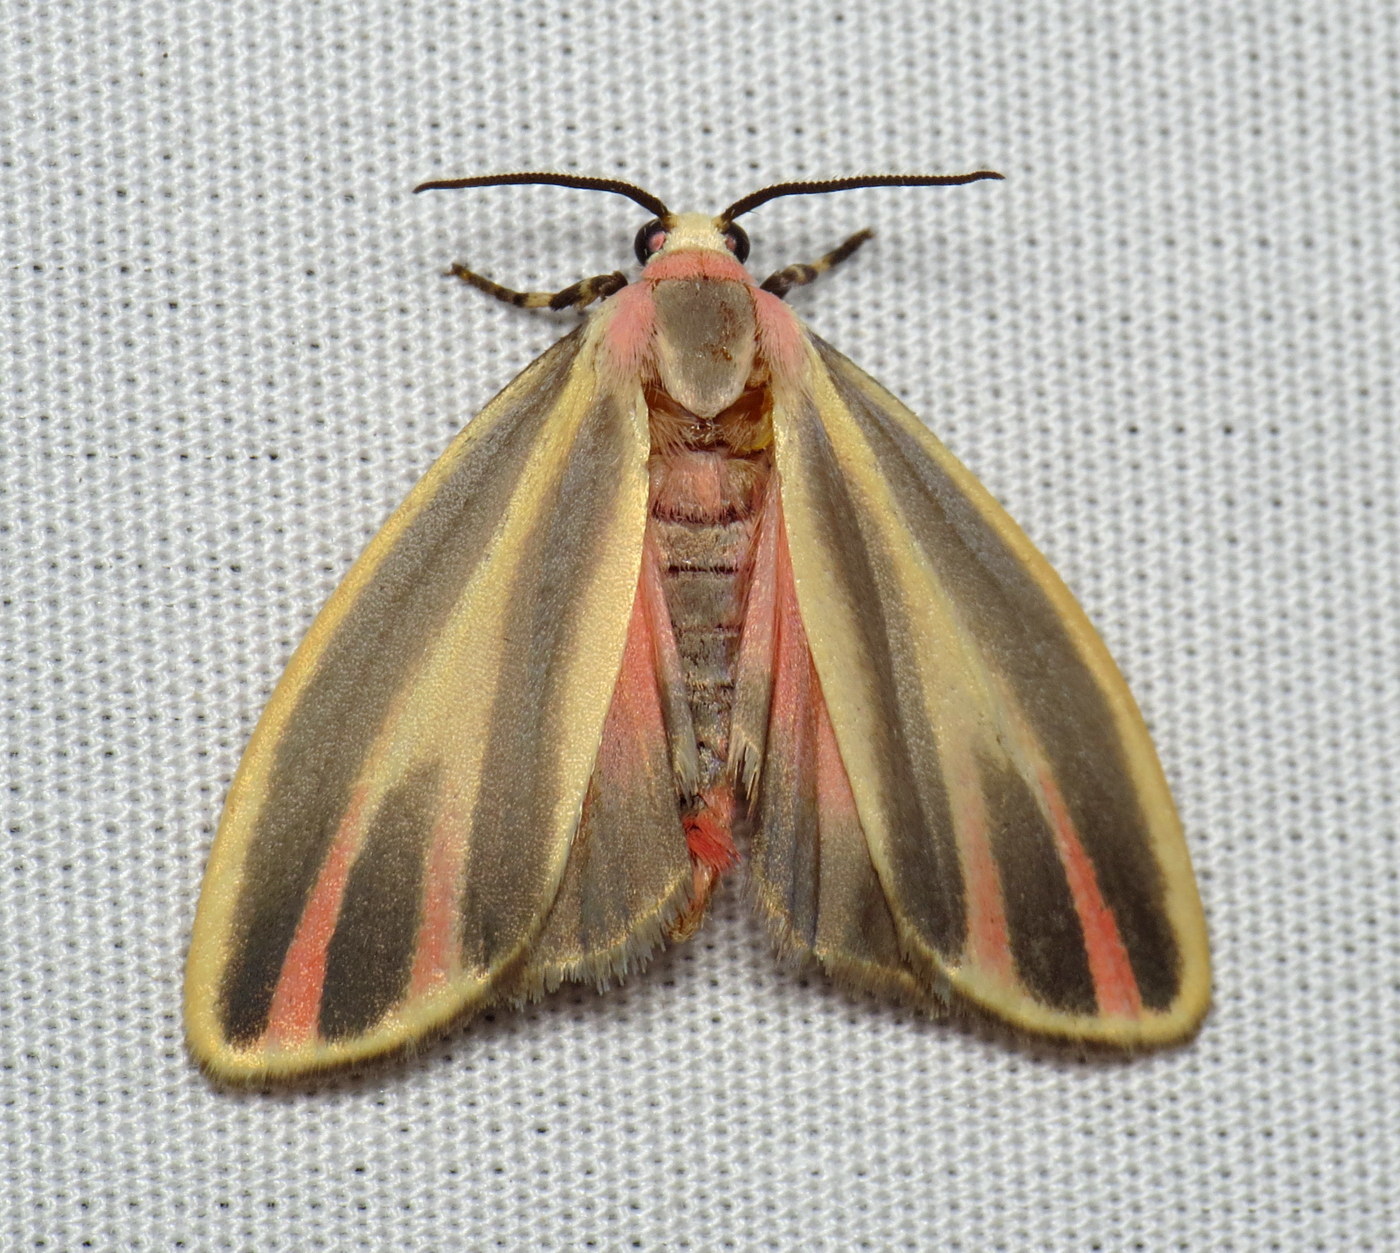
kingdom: Animalia
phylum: Arthropoda
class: Insecta
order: Lepidoptera
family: Erebidae
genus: Hypoprepia
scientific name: Hypoprepia fucosa
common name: Painted lichen moth
